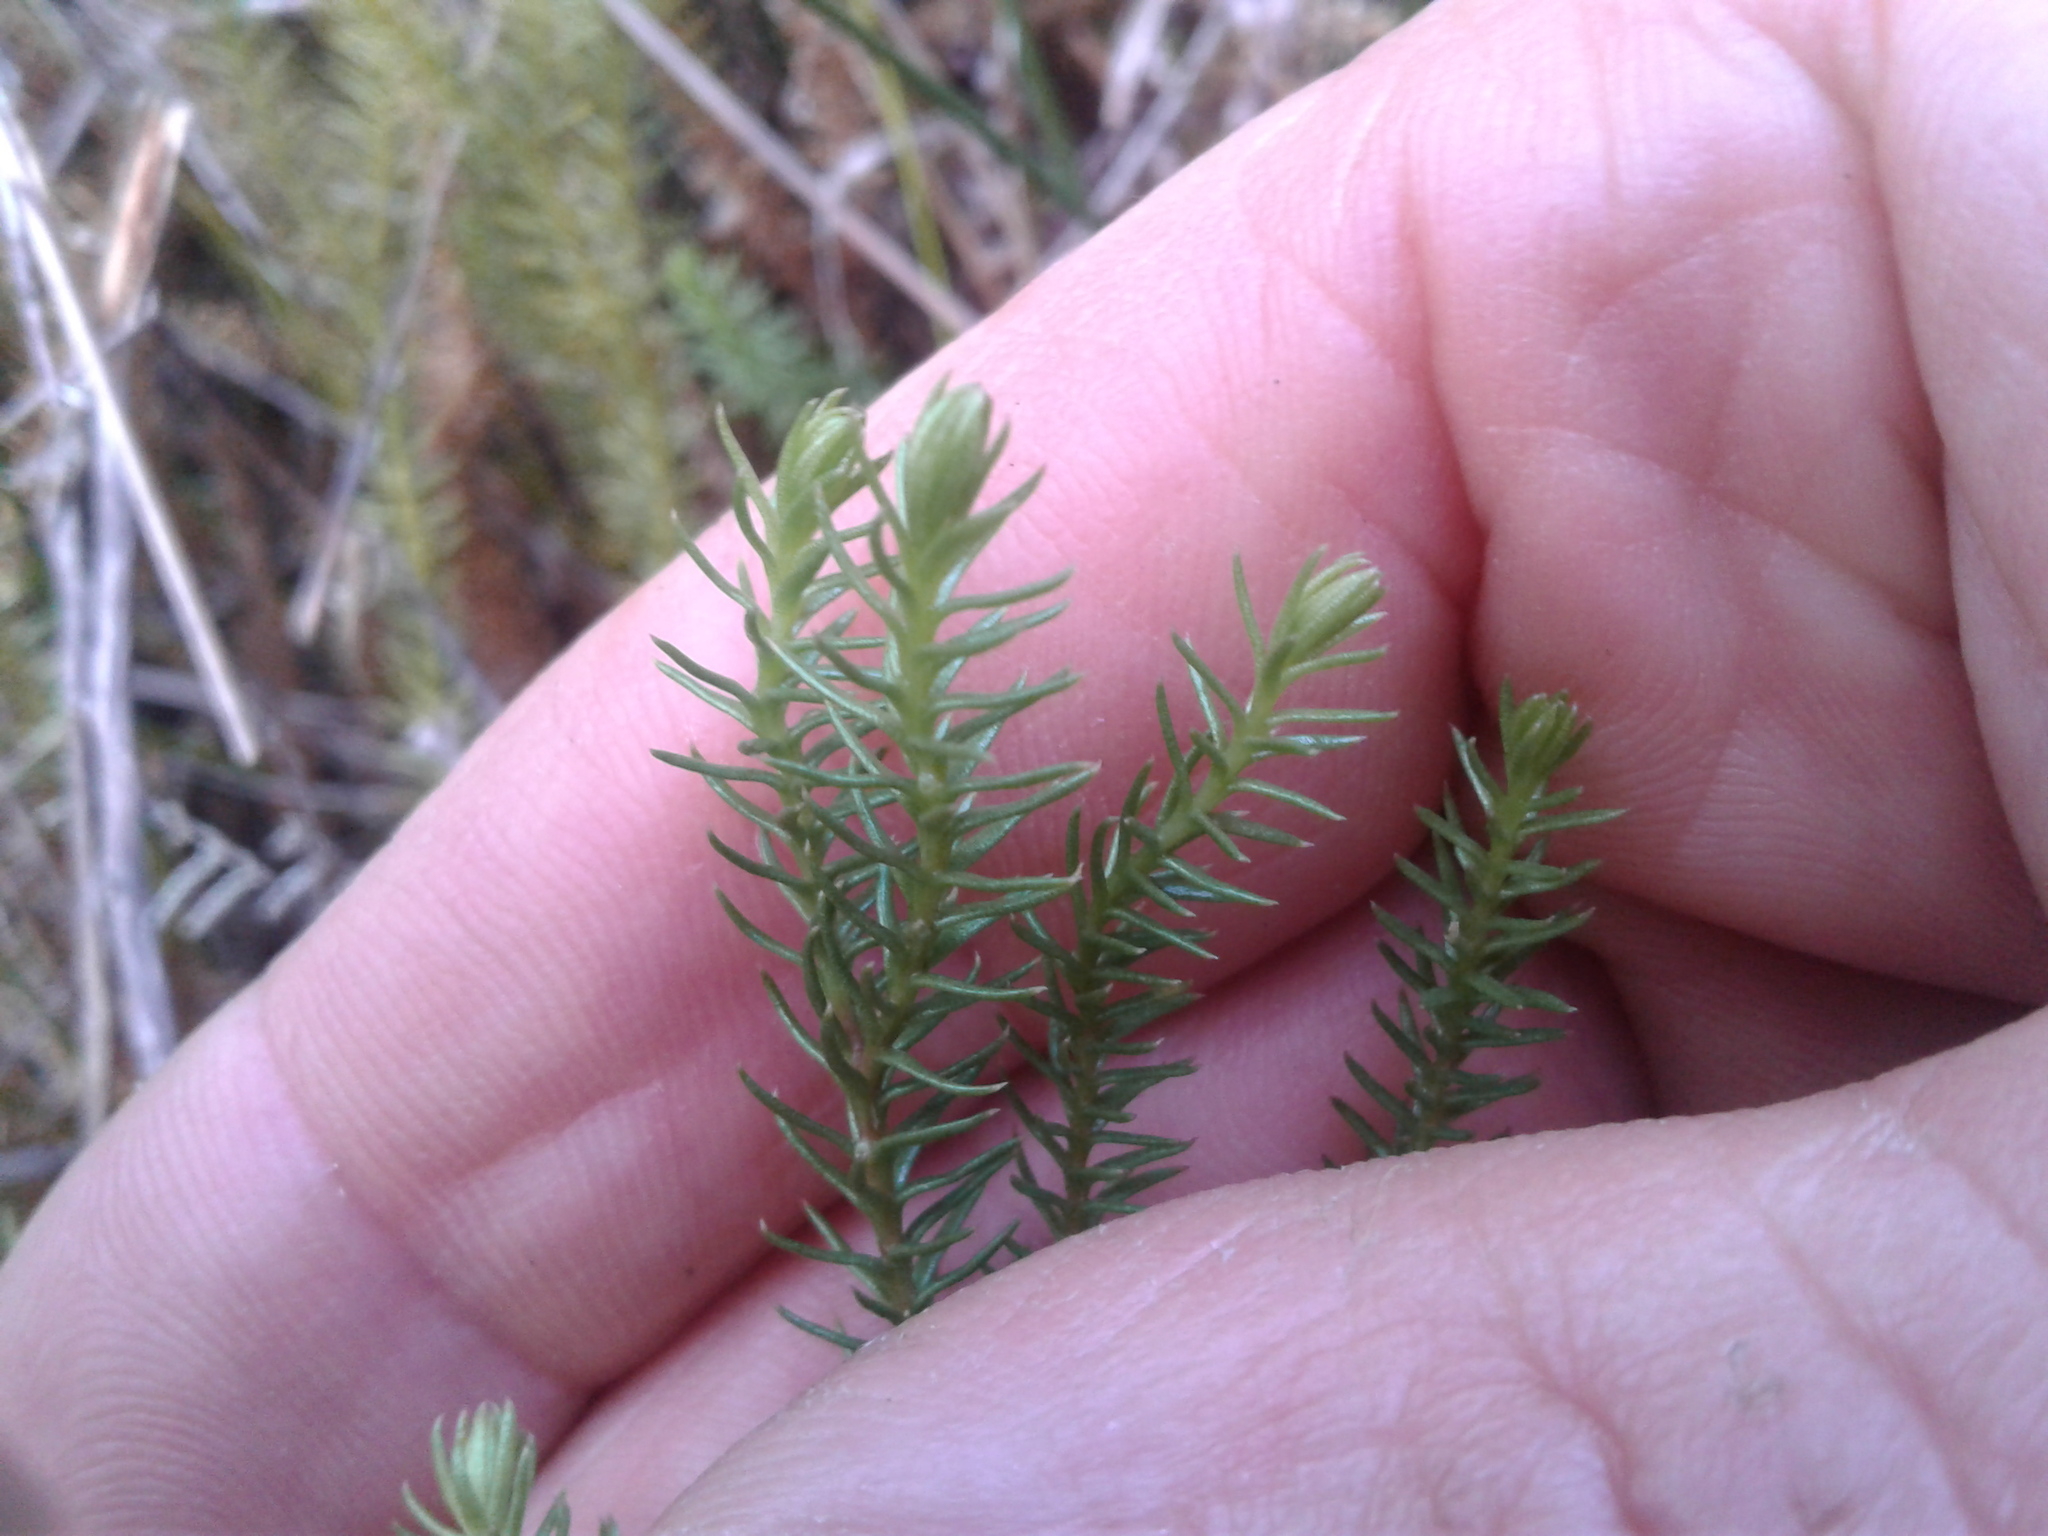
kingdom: Plantae
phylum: Tracheophyta
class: Lycopodiopsida
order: Lycopodiales
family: Lycopodiaceae
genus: Lateristachys
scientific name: Lateristachys lateralis
